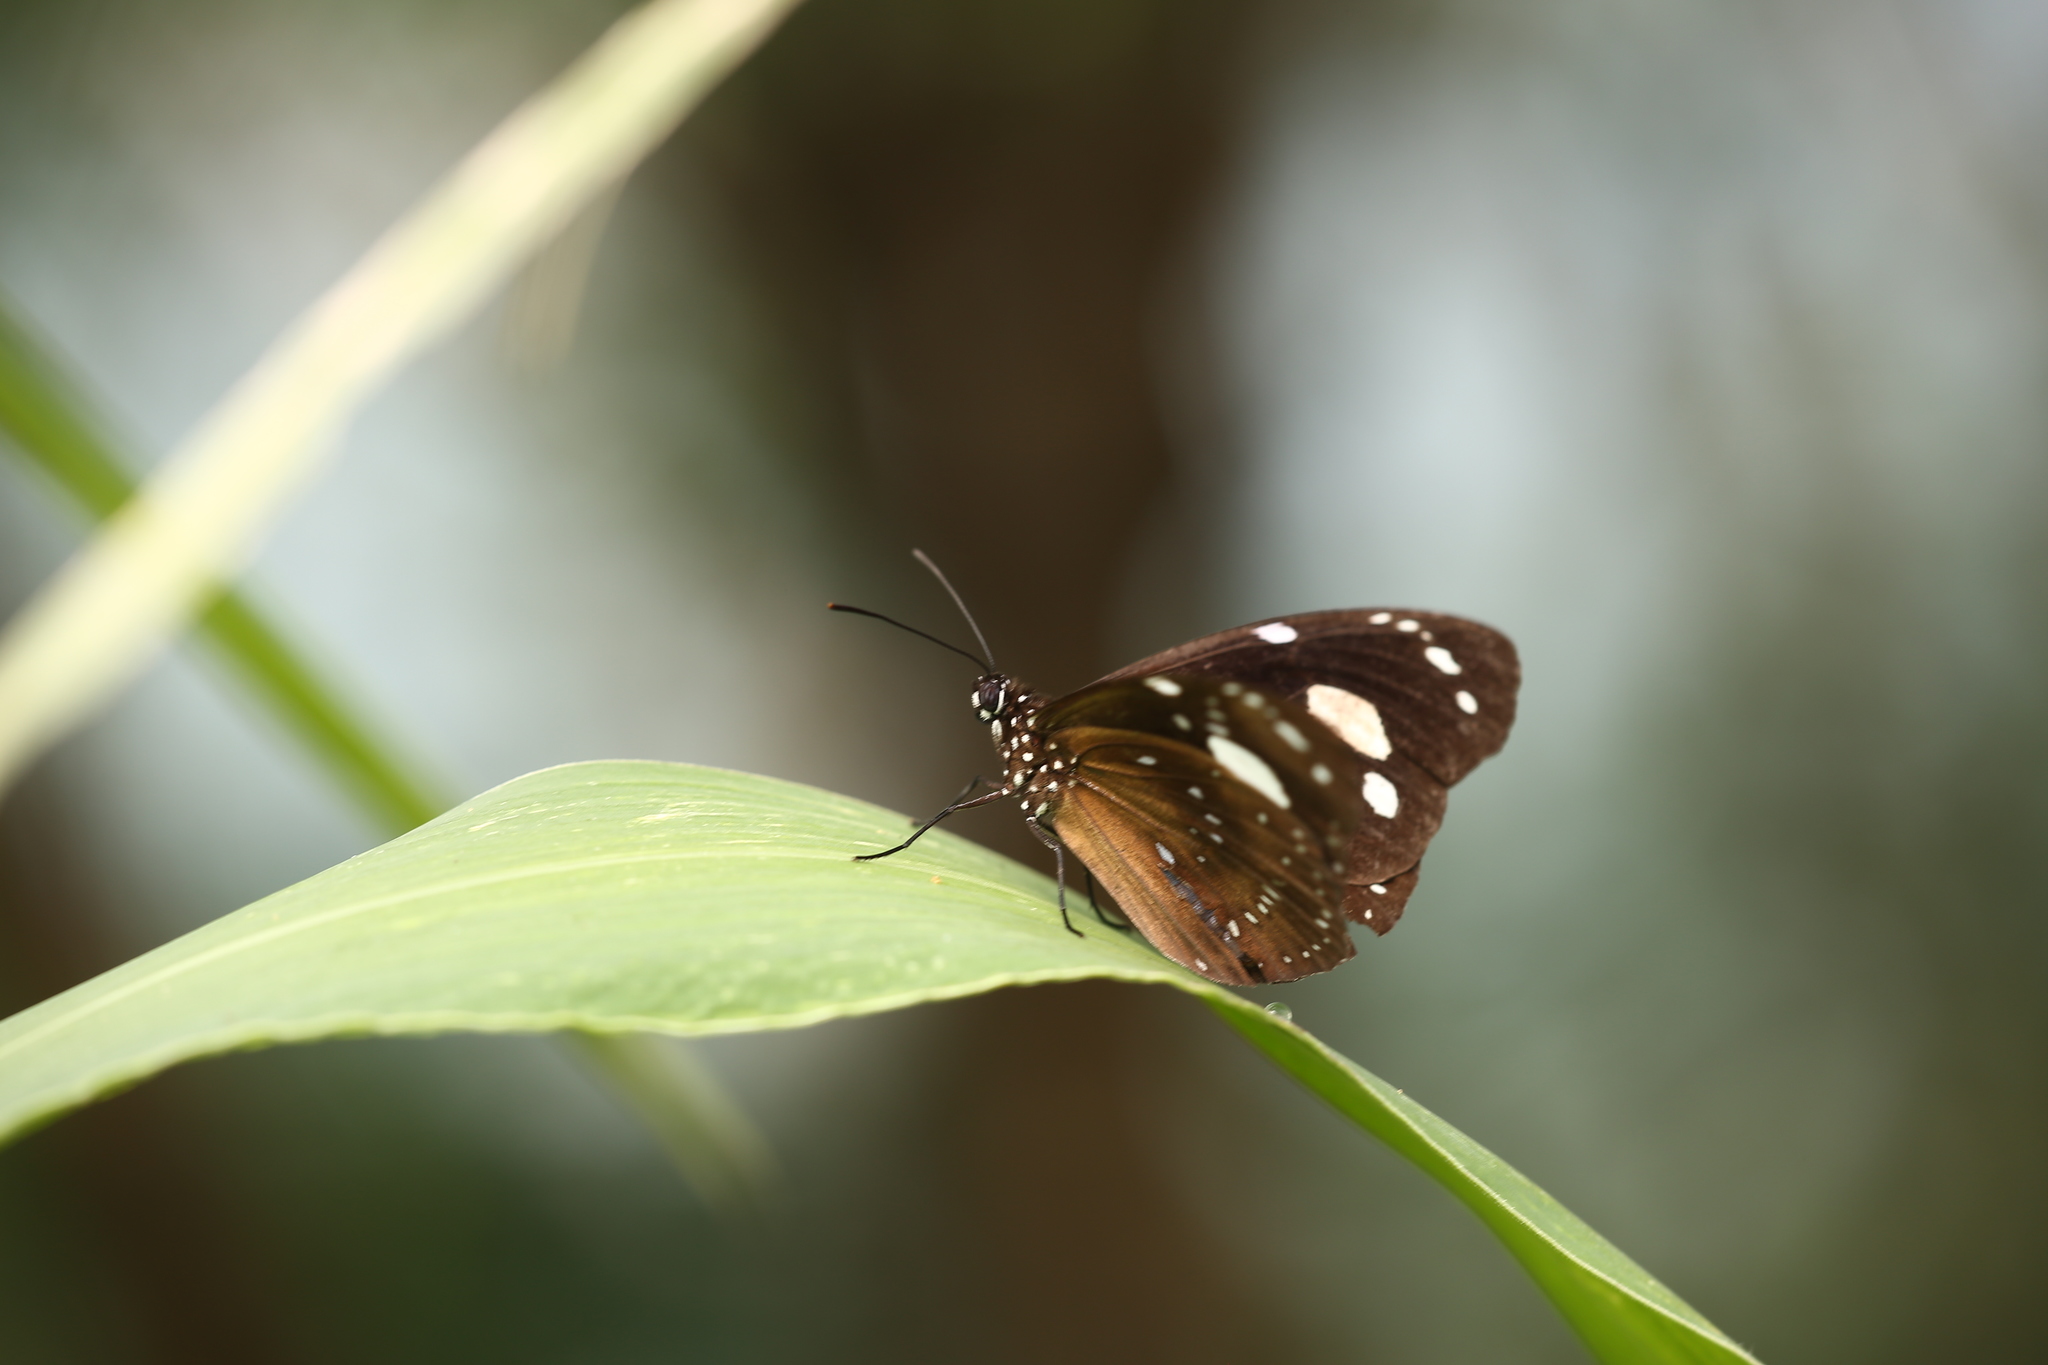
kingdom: Animalia
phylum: Arthropoda
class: Insecta
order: Lepidoptera
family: Nymphalidae
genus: Euploea
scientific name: Euploea lewinii
